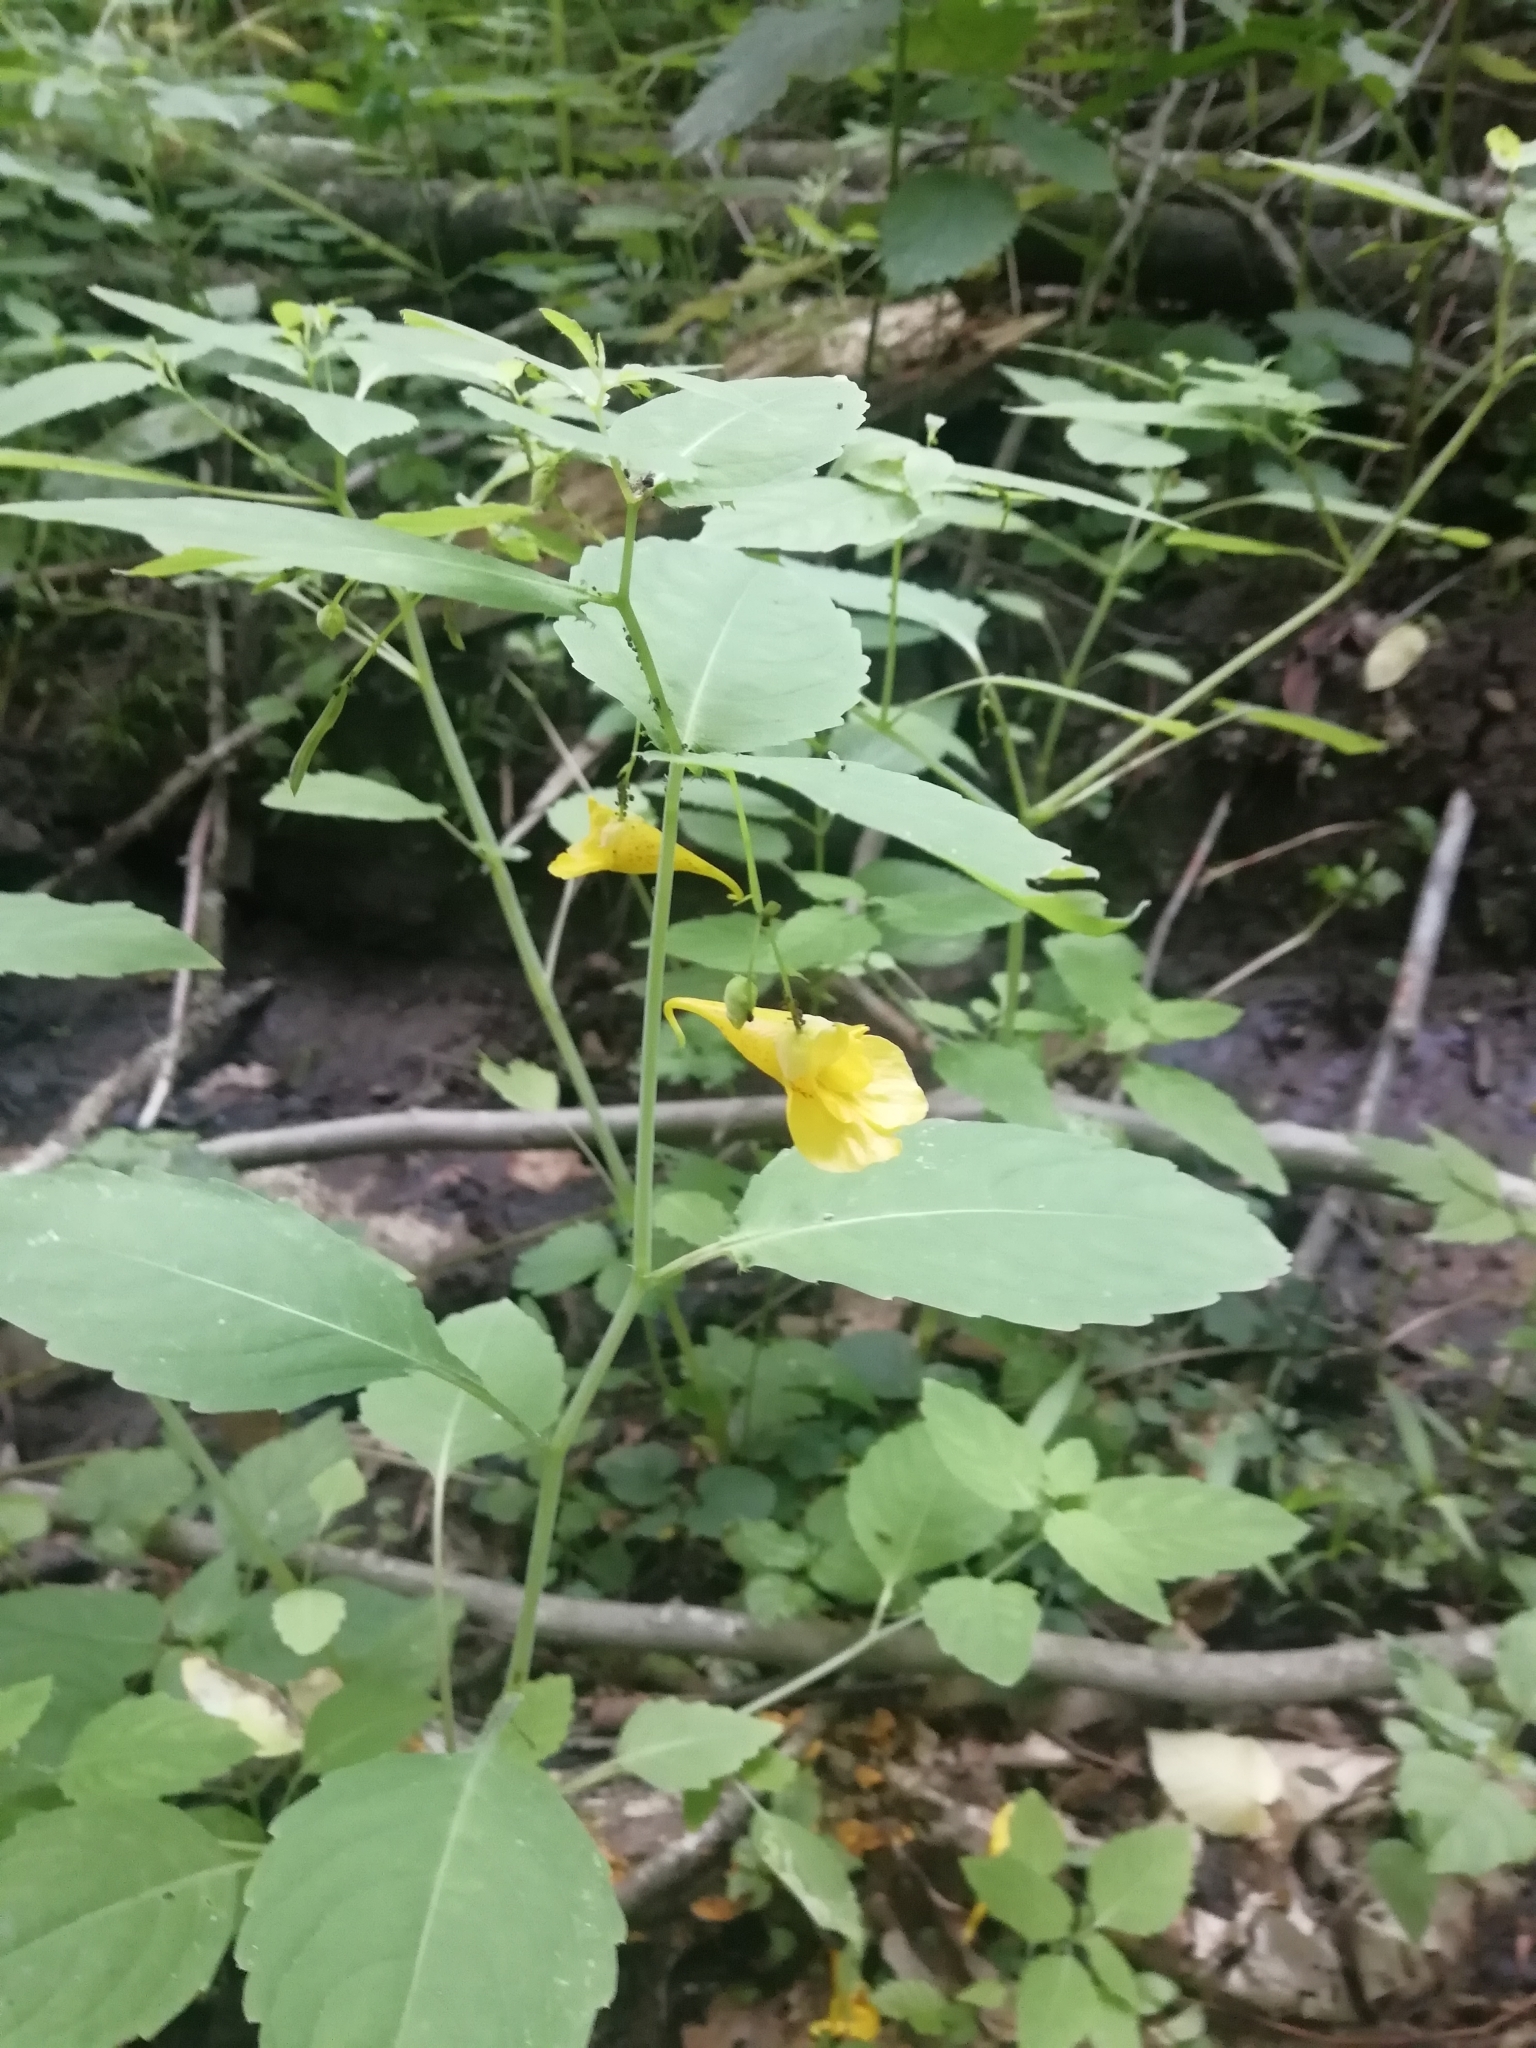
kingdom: Plantae
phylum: Tracheophyta
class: Magnoliopsida
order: Ericales
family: Balsaminaceae
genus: Impatiens
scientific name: Impatiens noli-tangere
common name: Touch-me-not balsam
